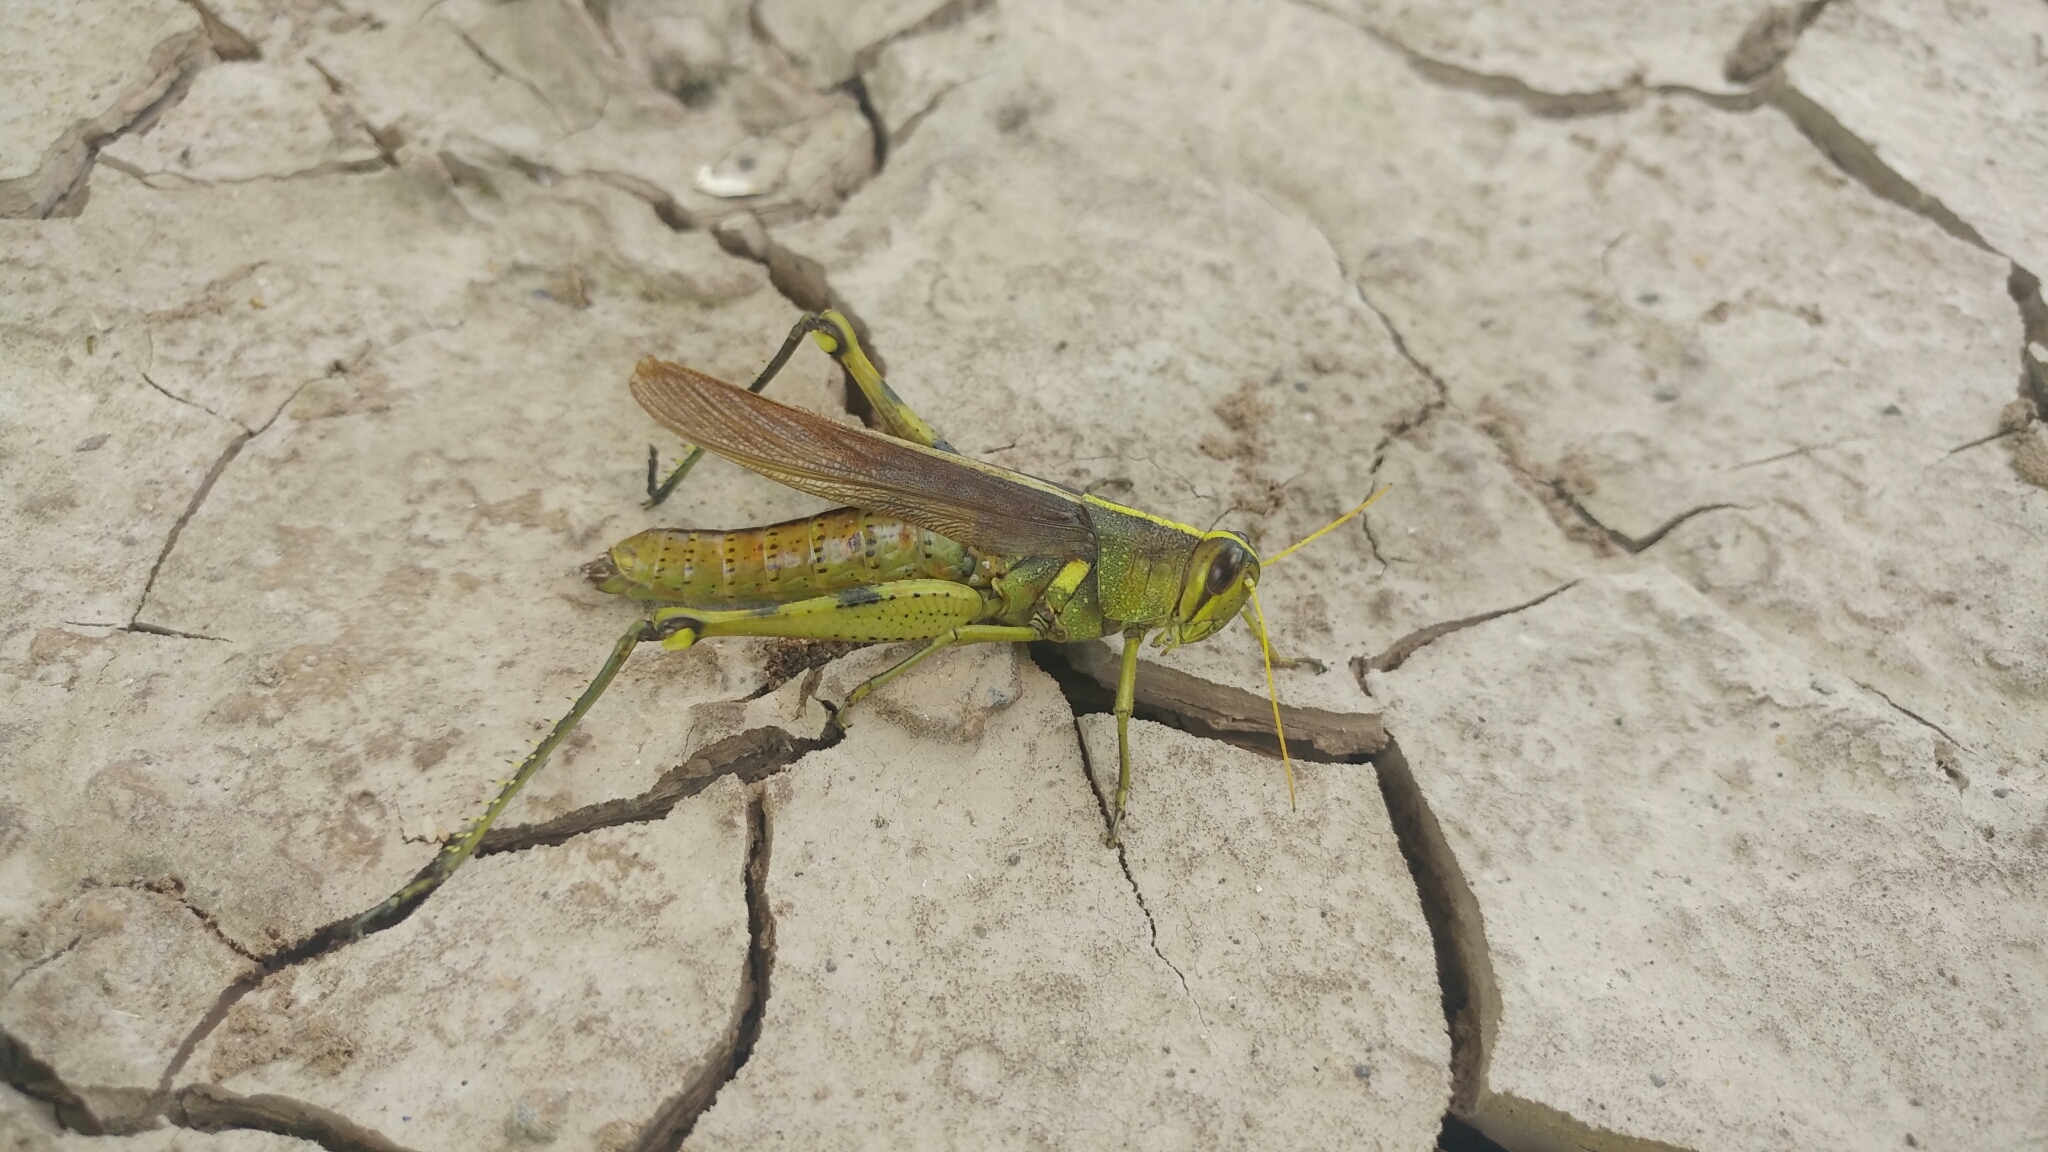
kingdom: Animalia
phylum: Arthropoda
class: Insecta
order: Orthoptera
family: Acrididae
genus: Schistocerca
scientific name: Schistocerca obscura
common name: Obscure bird grasshopper
